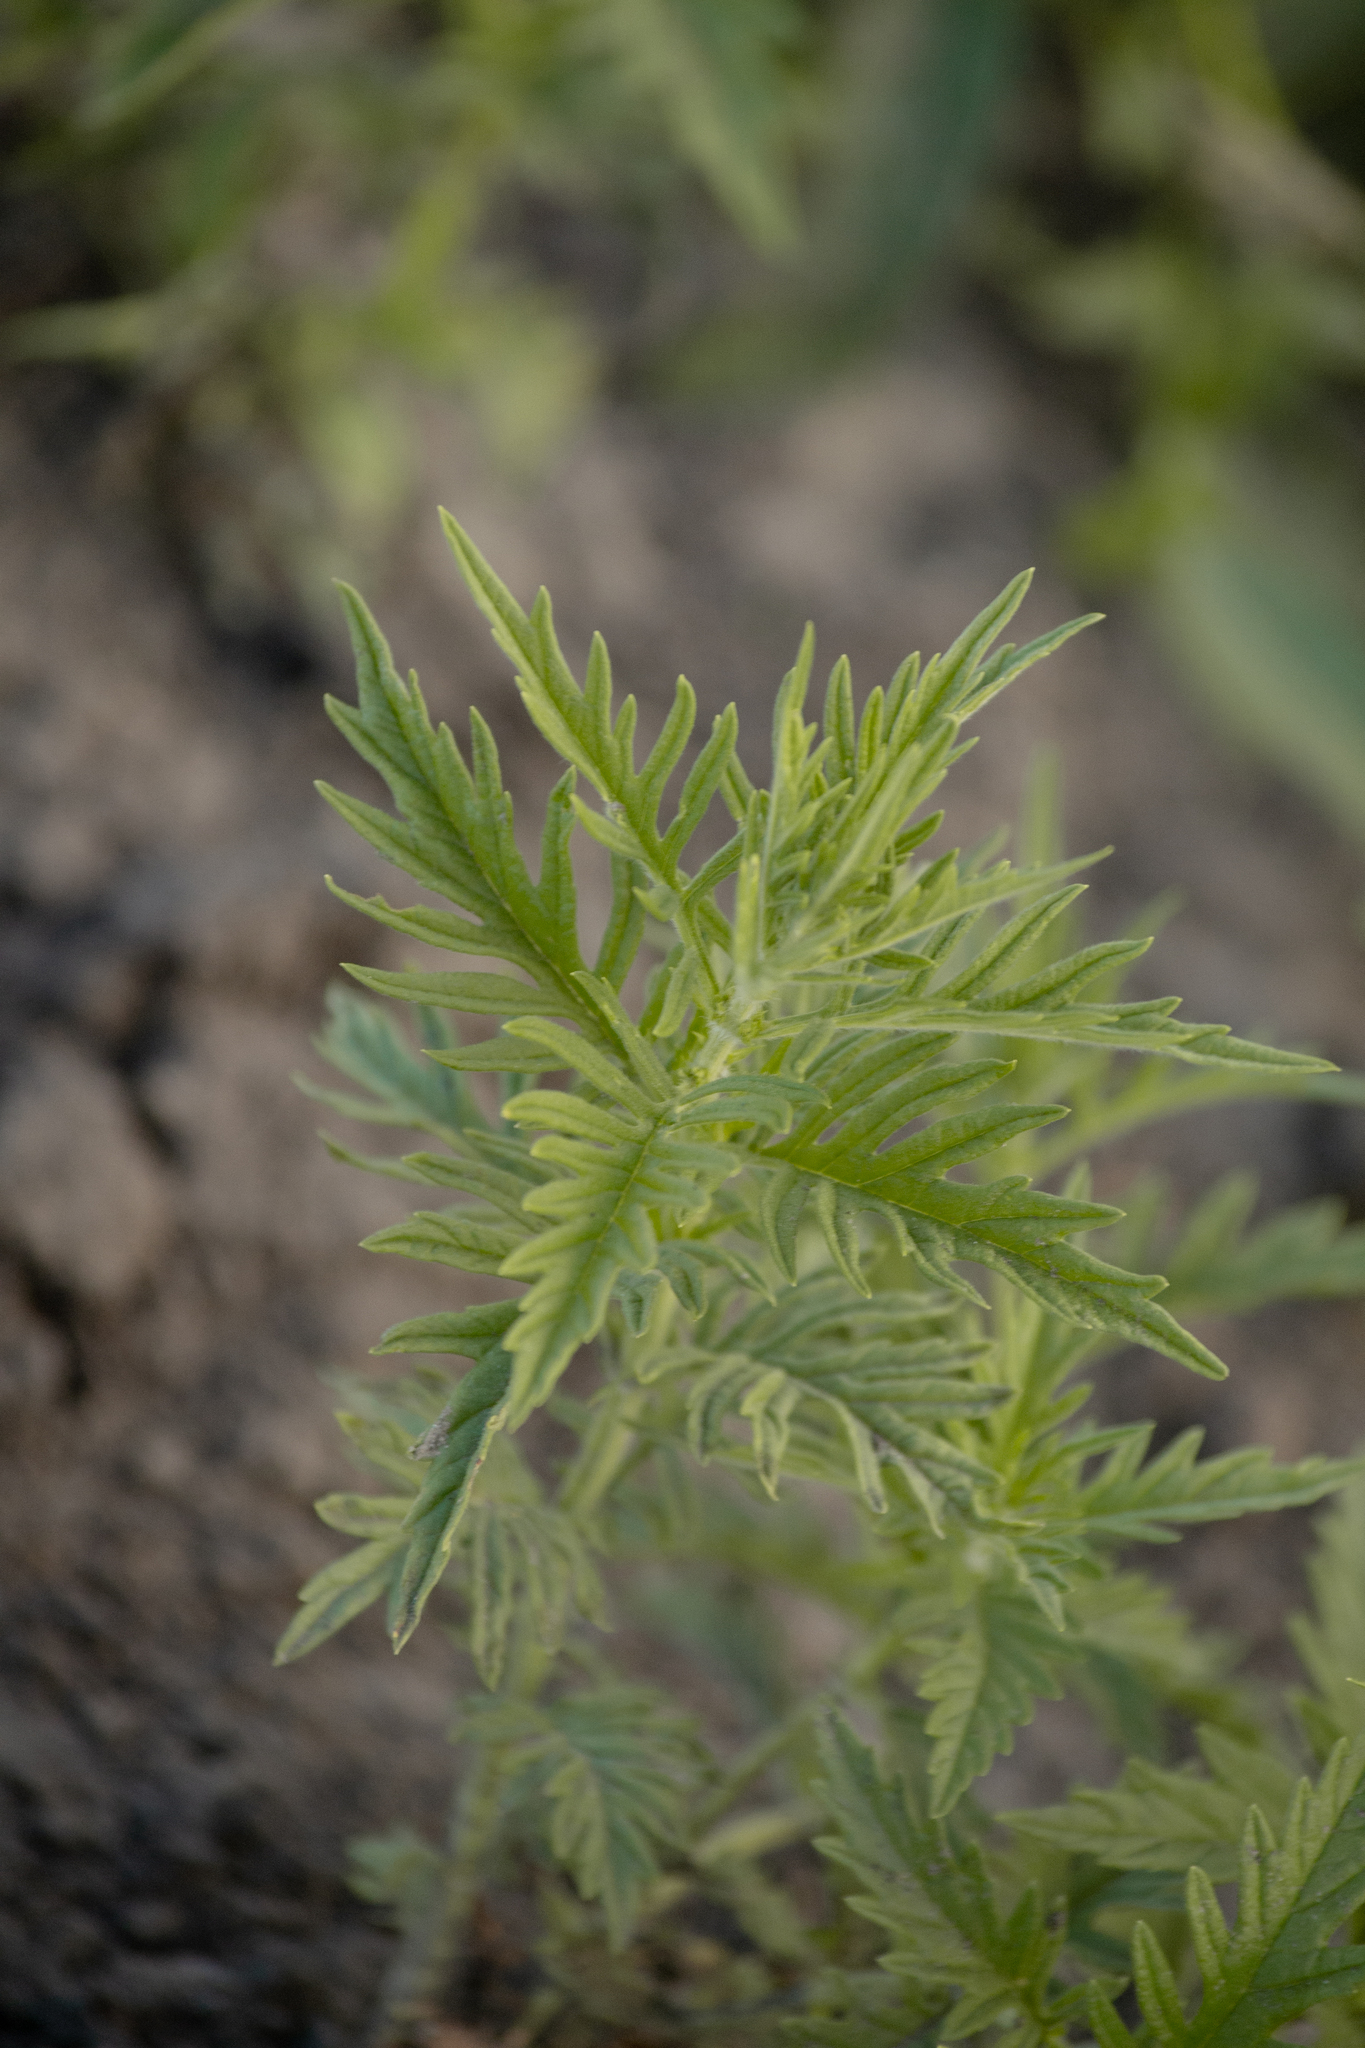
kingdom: Plantae
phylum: Tracheophyta
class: Magnoliopsida
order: Lamiales
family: Lamiaceae
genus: Lycopus
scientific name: Lycopus exaltatus
